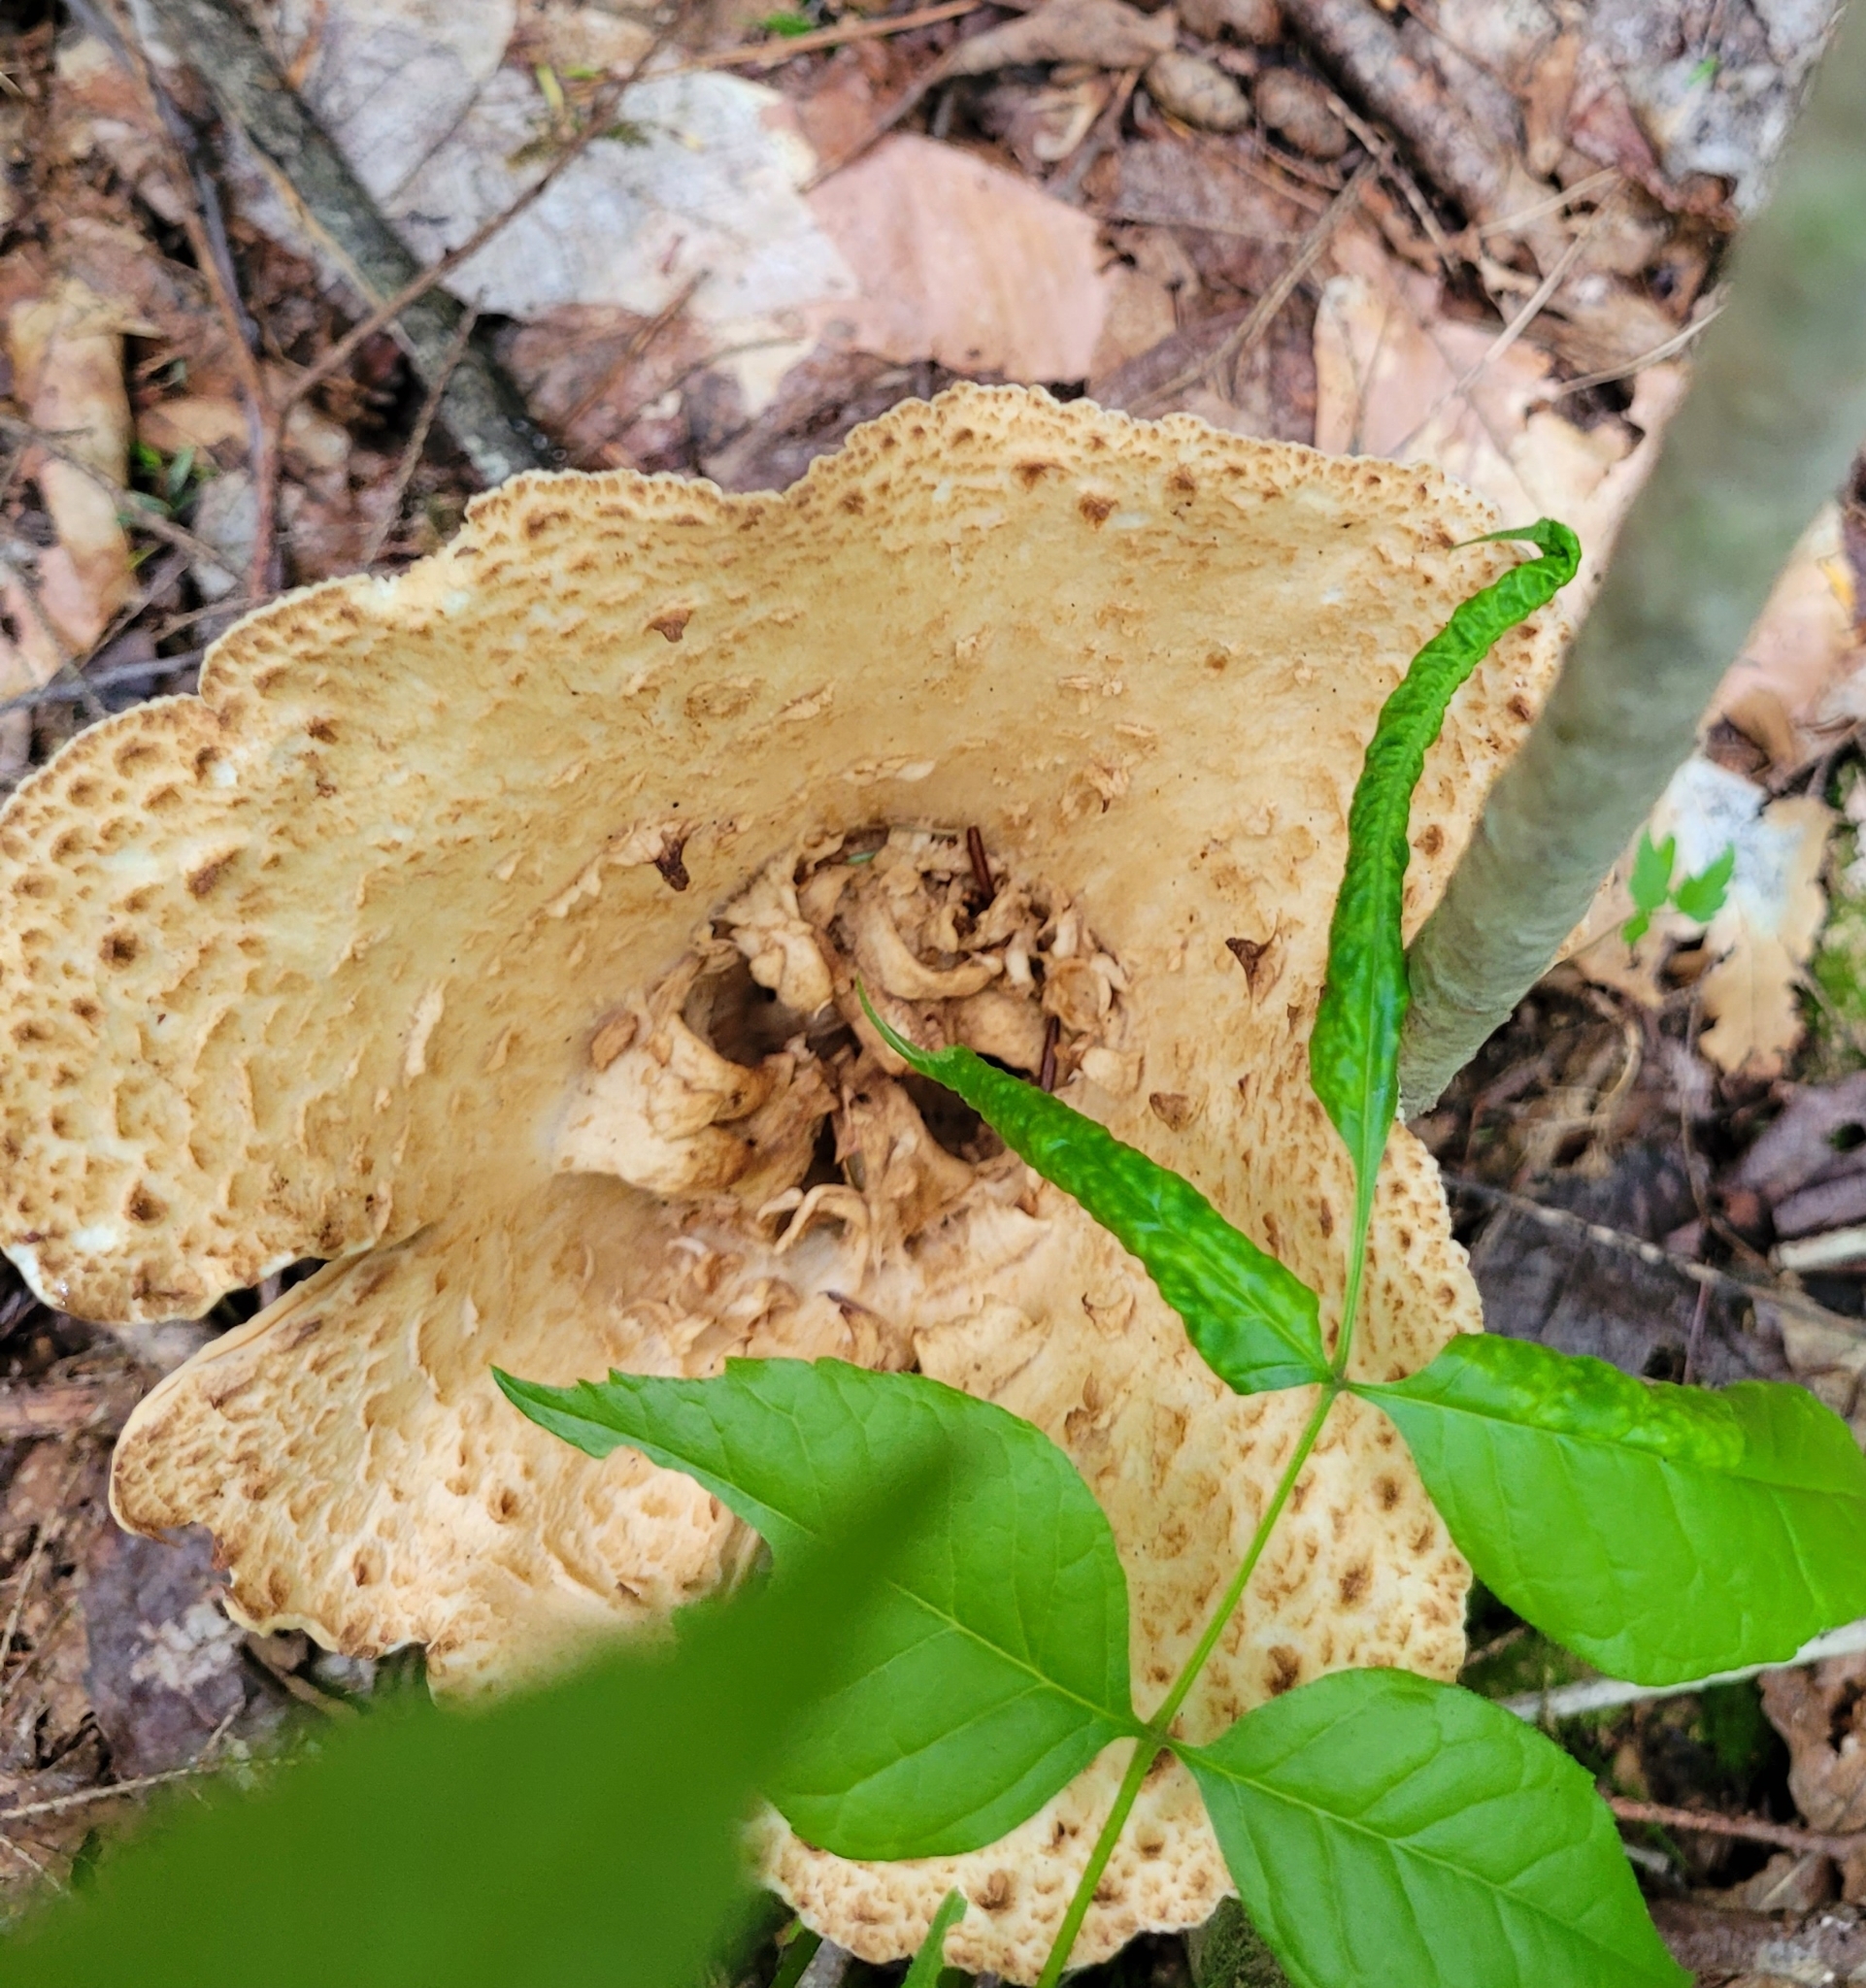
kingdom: Fungi
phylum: Basidiomycota
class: Agaricomycetes
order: Gomphales
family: Gomphaceae
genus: Turbinellus
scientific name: Turbinellus kauffmanii
